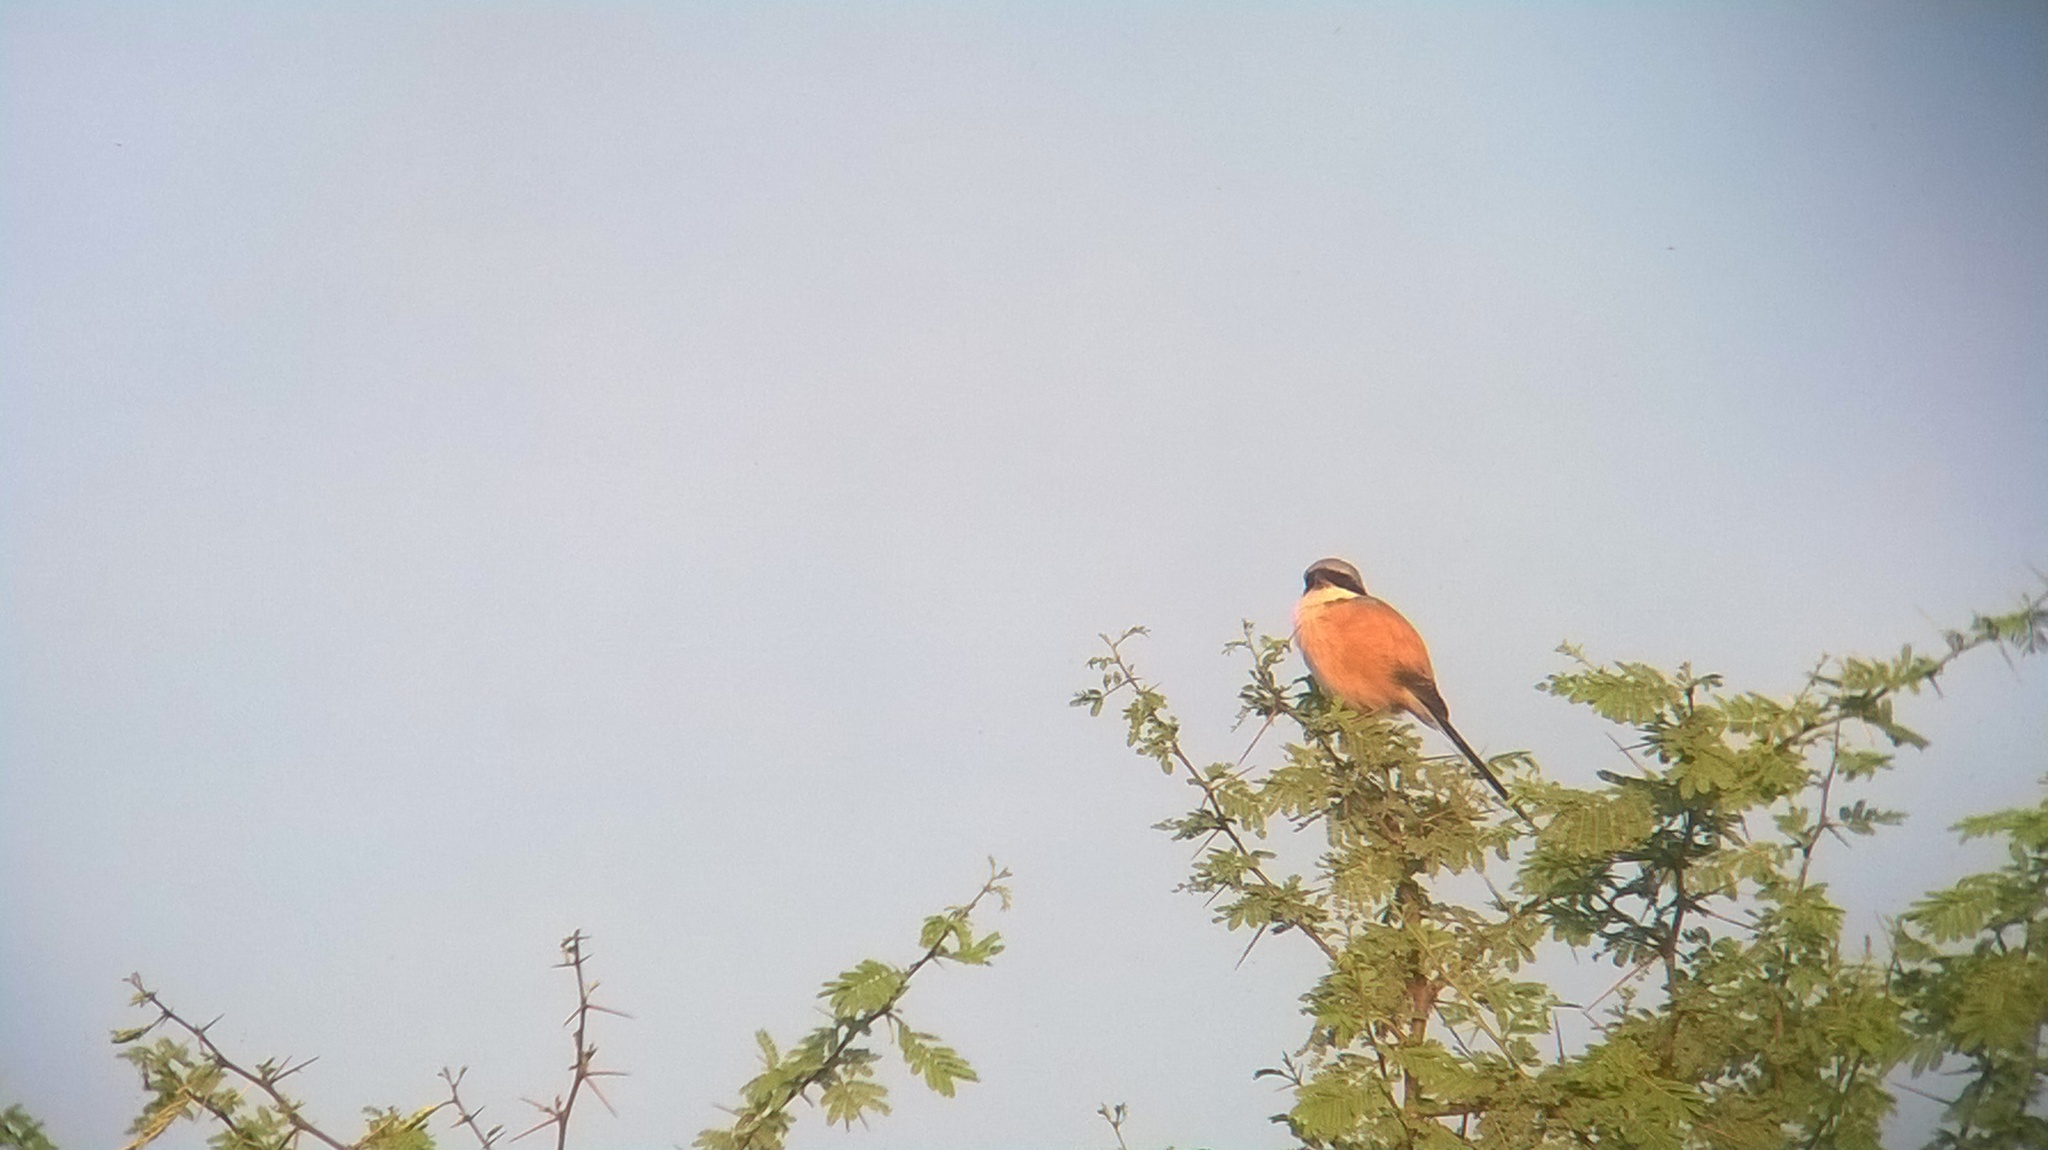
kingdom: Animalia
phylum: Chordata
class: Squamata
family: Colubridae
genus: Lycodon
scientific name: Lycodon aulicus
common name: Common wolf snake
